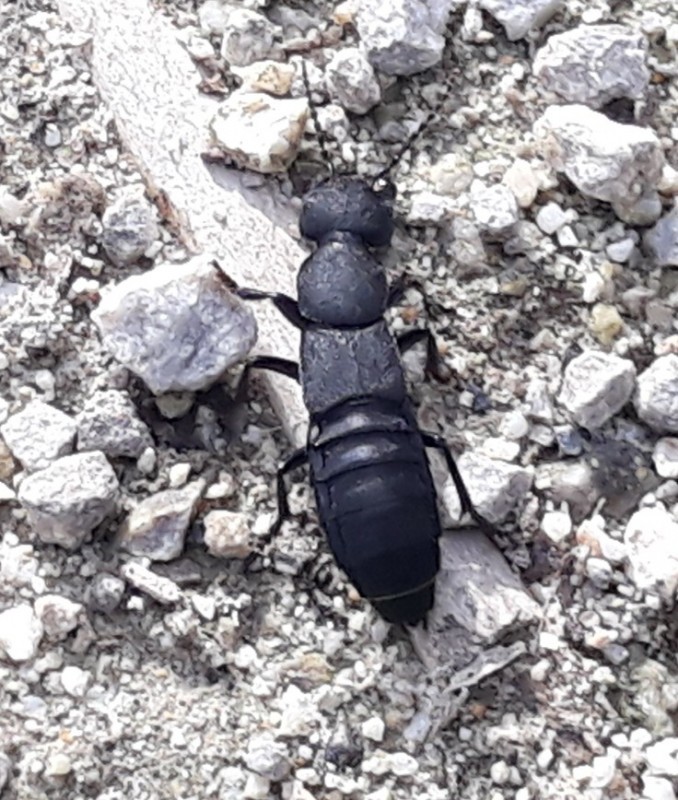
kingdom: Animalia
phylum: Arthropoda
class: Insecta
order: Coleoptera
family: Staphylinidae
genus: Ocypus
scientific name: Ocypus olens
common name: Devil's coach-horse
